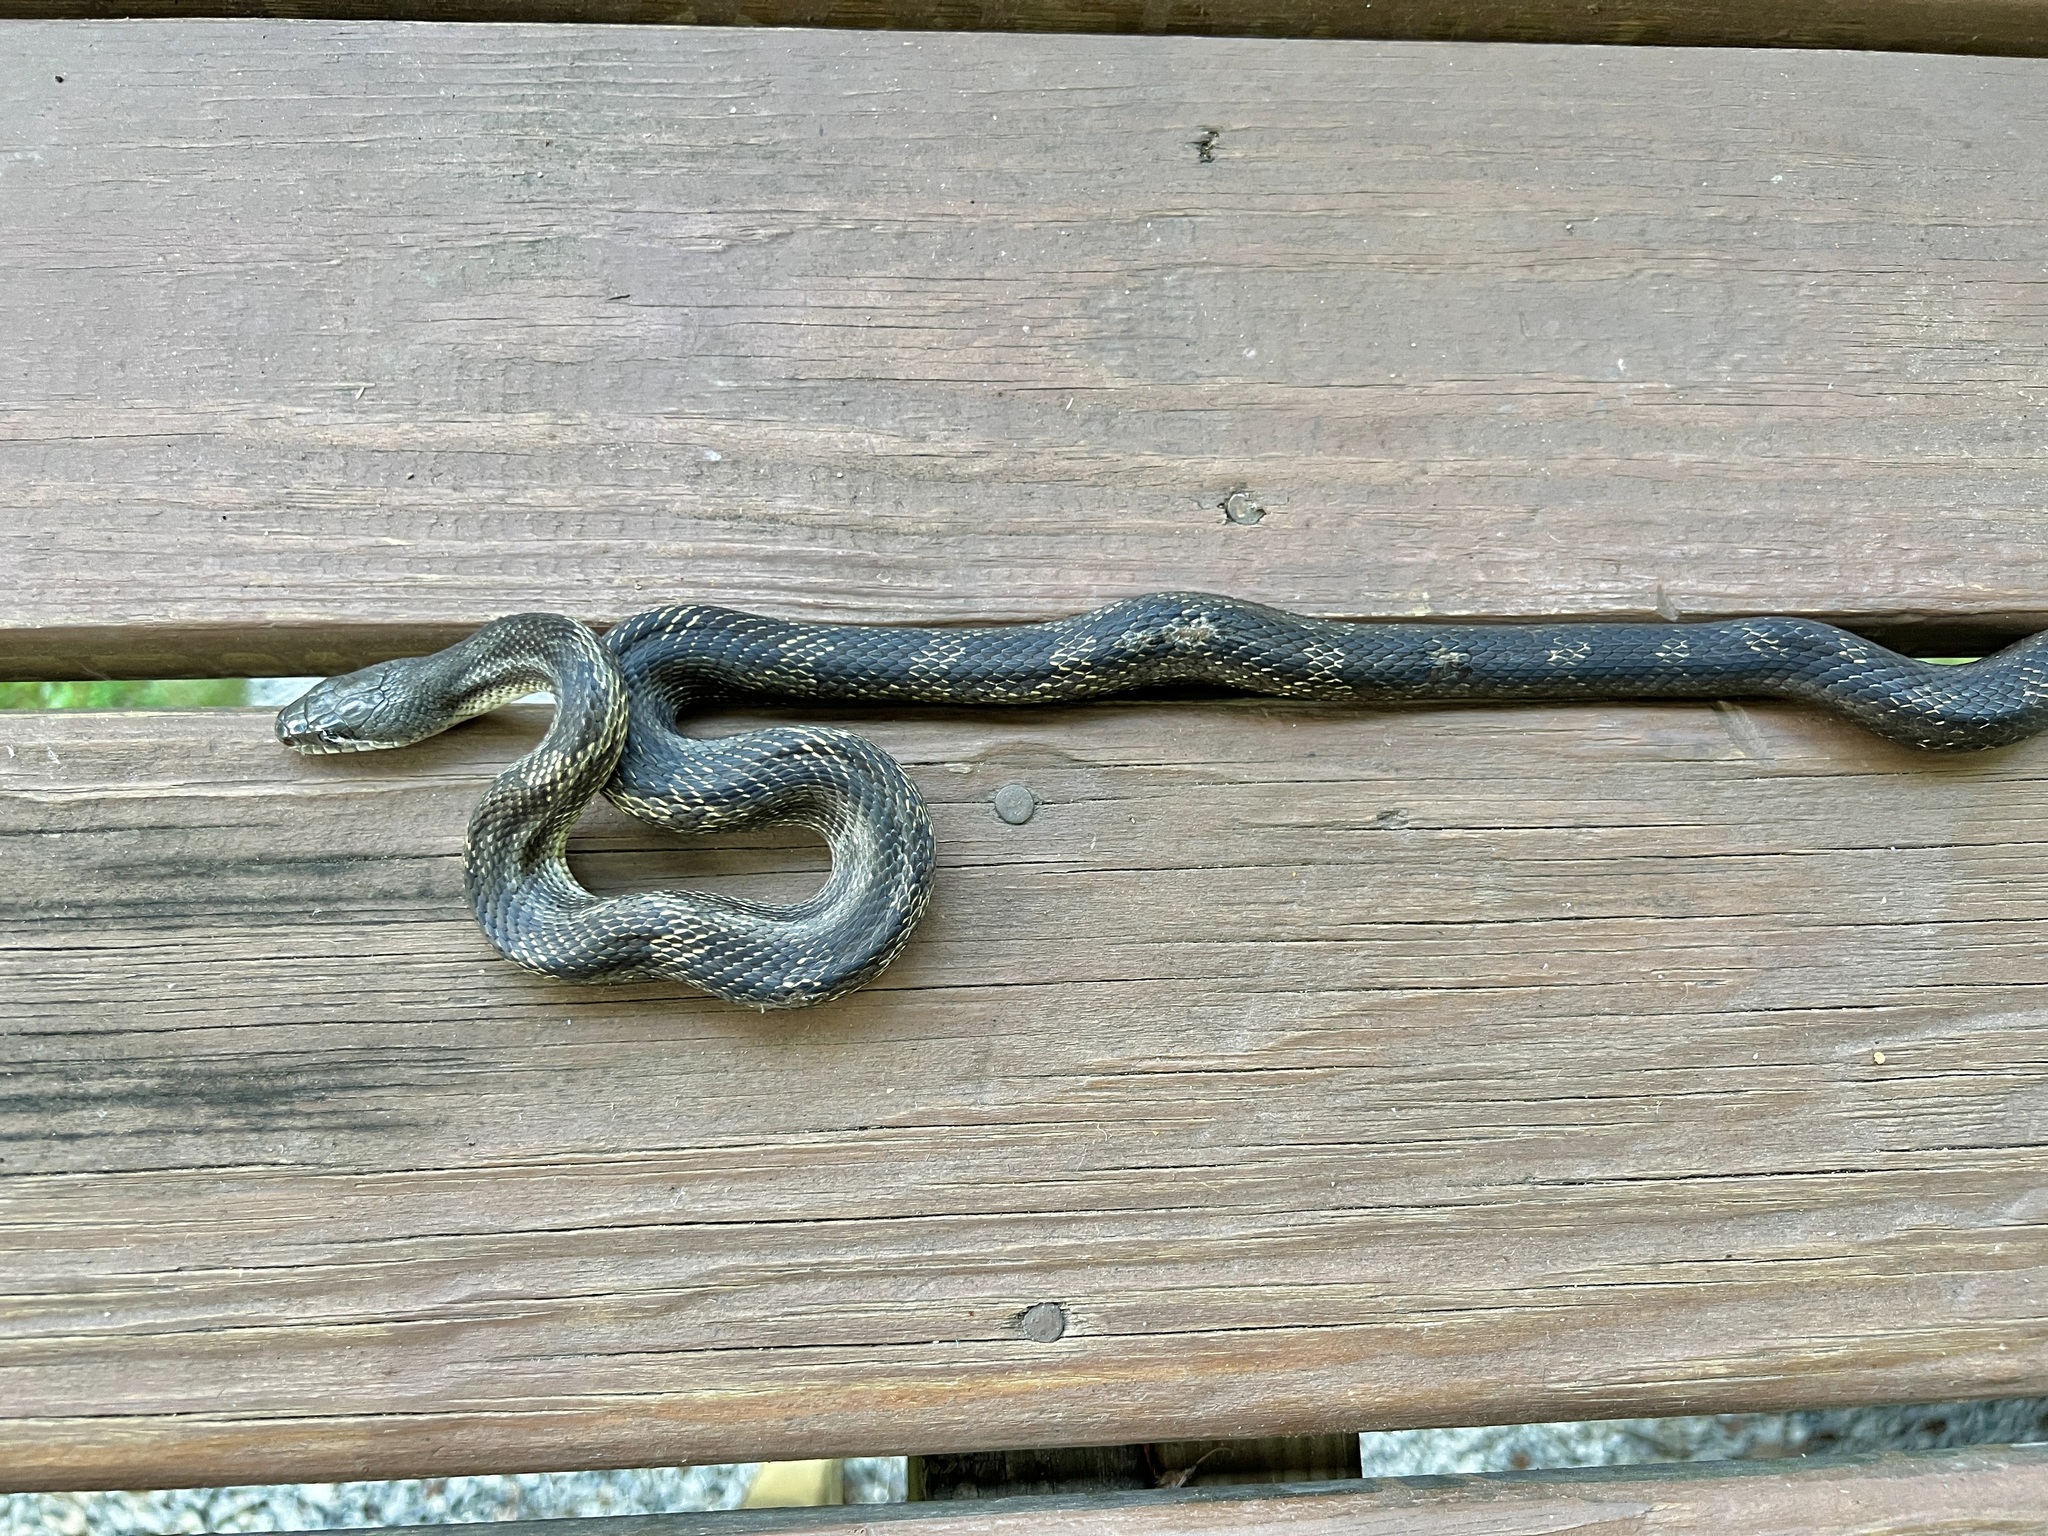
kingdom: Animalia
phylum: Chordata
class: Squamata
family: Colubridae
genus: Pantherophis
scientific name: Pantherophis spiloides
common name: Gray rat snake
